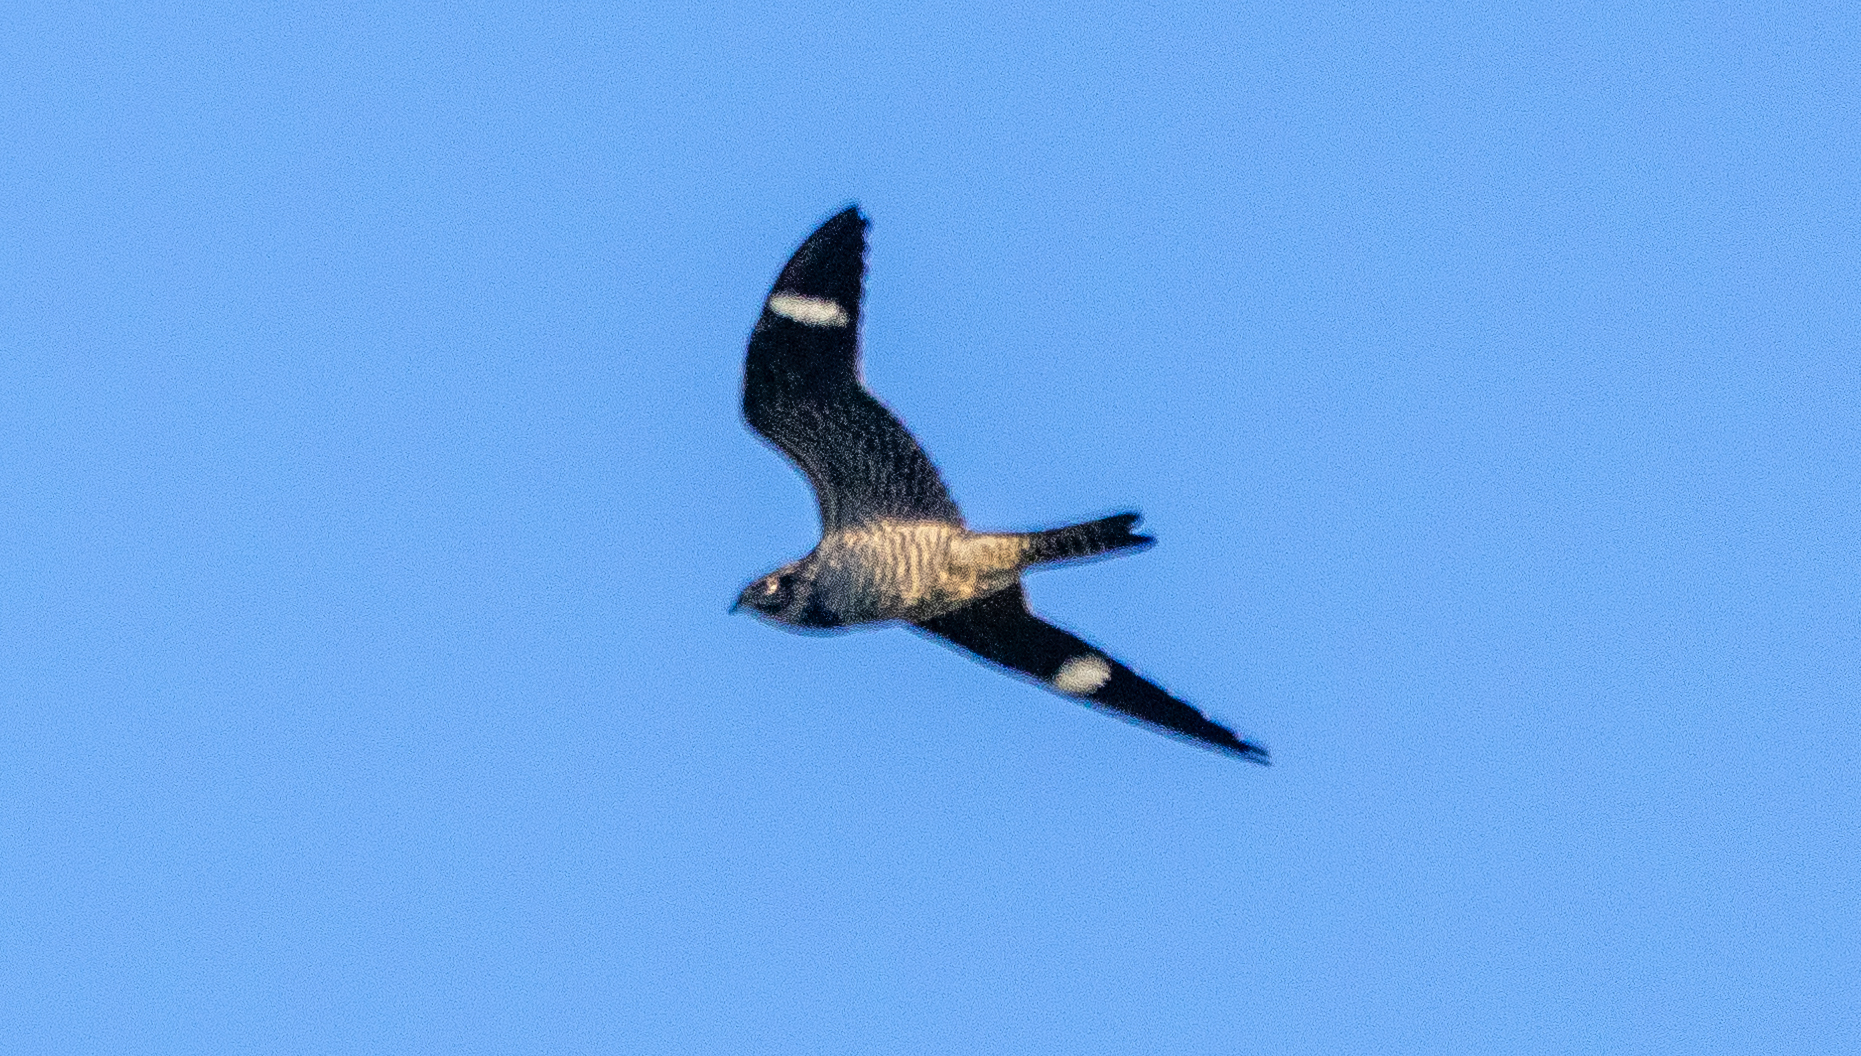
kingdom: Animalia
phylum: Chordata
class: Aves
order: Caprimulgiformes
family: Caprimulgidae
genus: Chordeiles
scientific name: Chordeiles minor
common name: Common nighthawk
